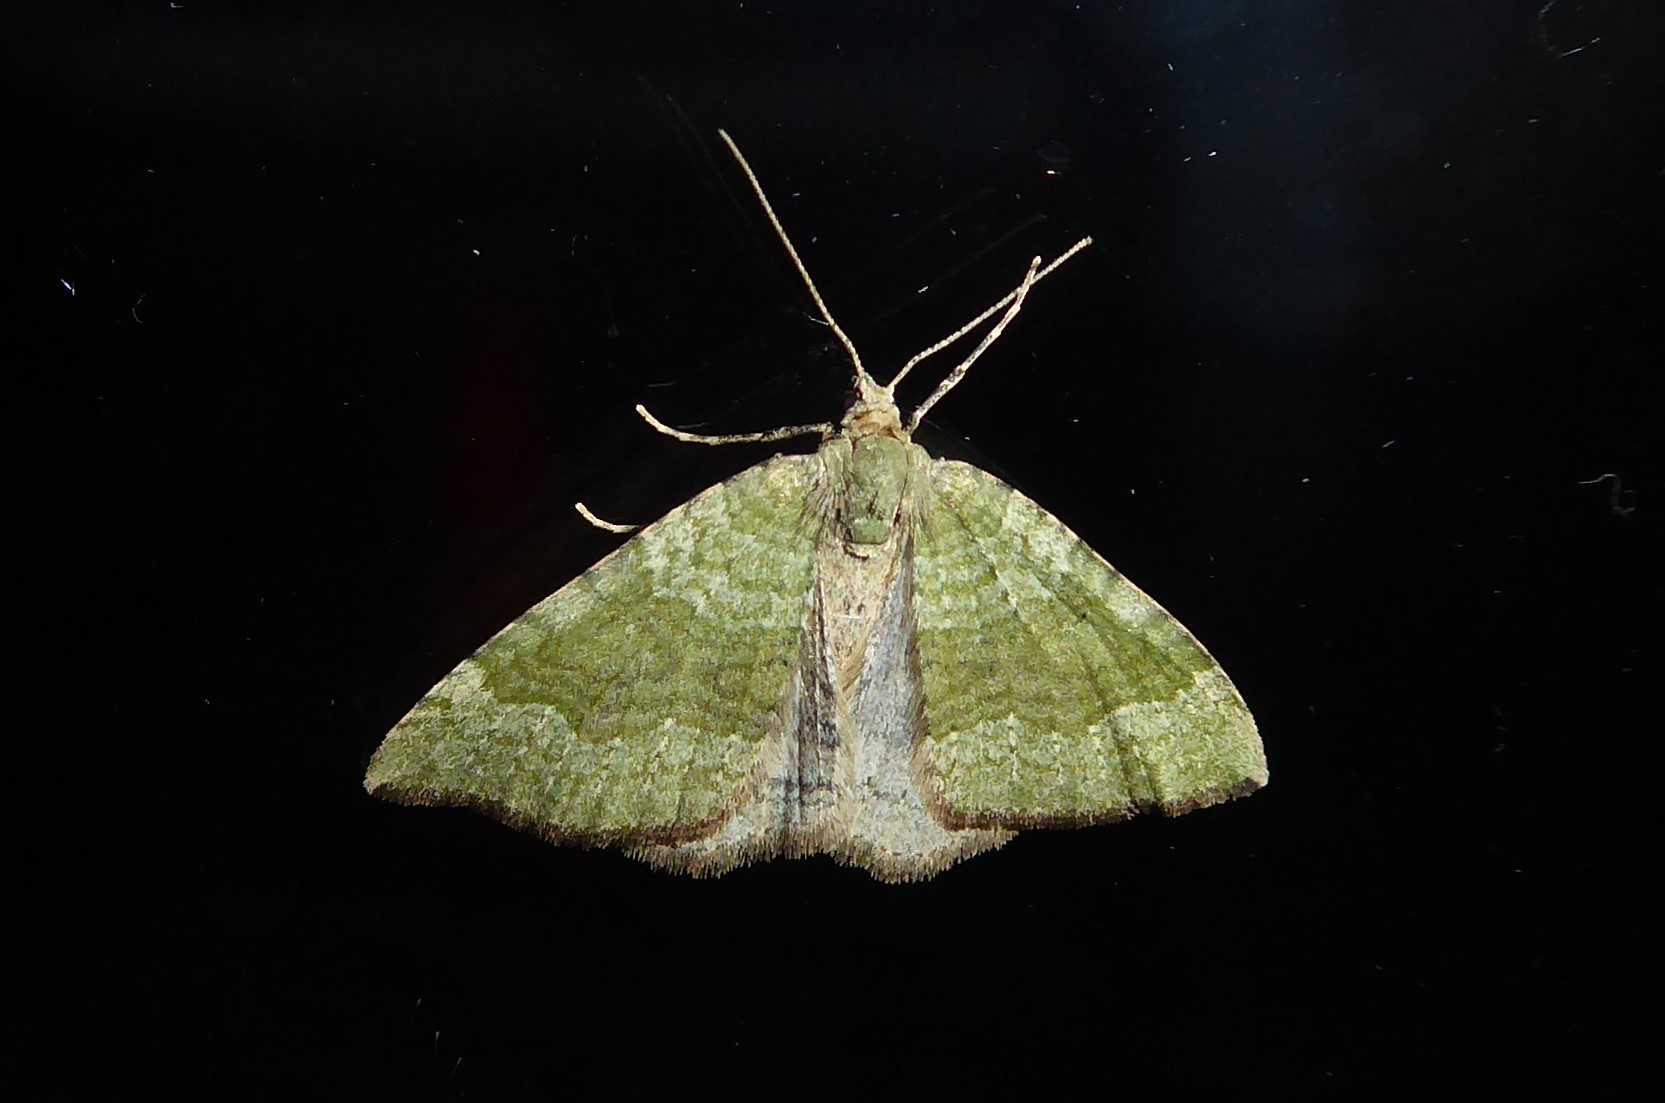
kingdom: Animalia
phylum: Arthropoda
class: Insecta
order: Lepidoptera
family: Geometridae
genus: Epyaxa
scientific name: Epyaxa rosearia
